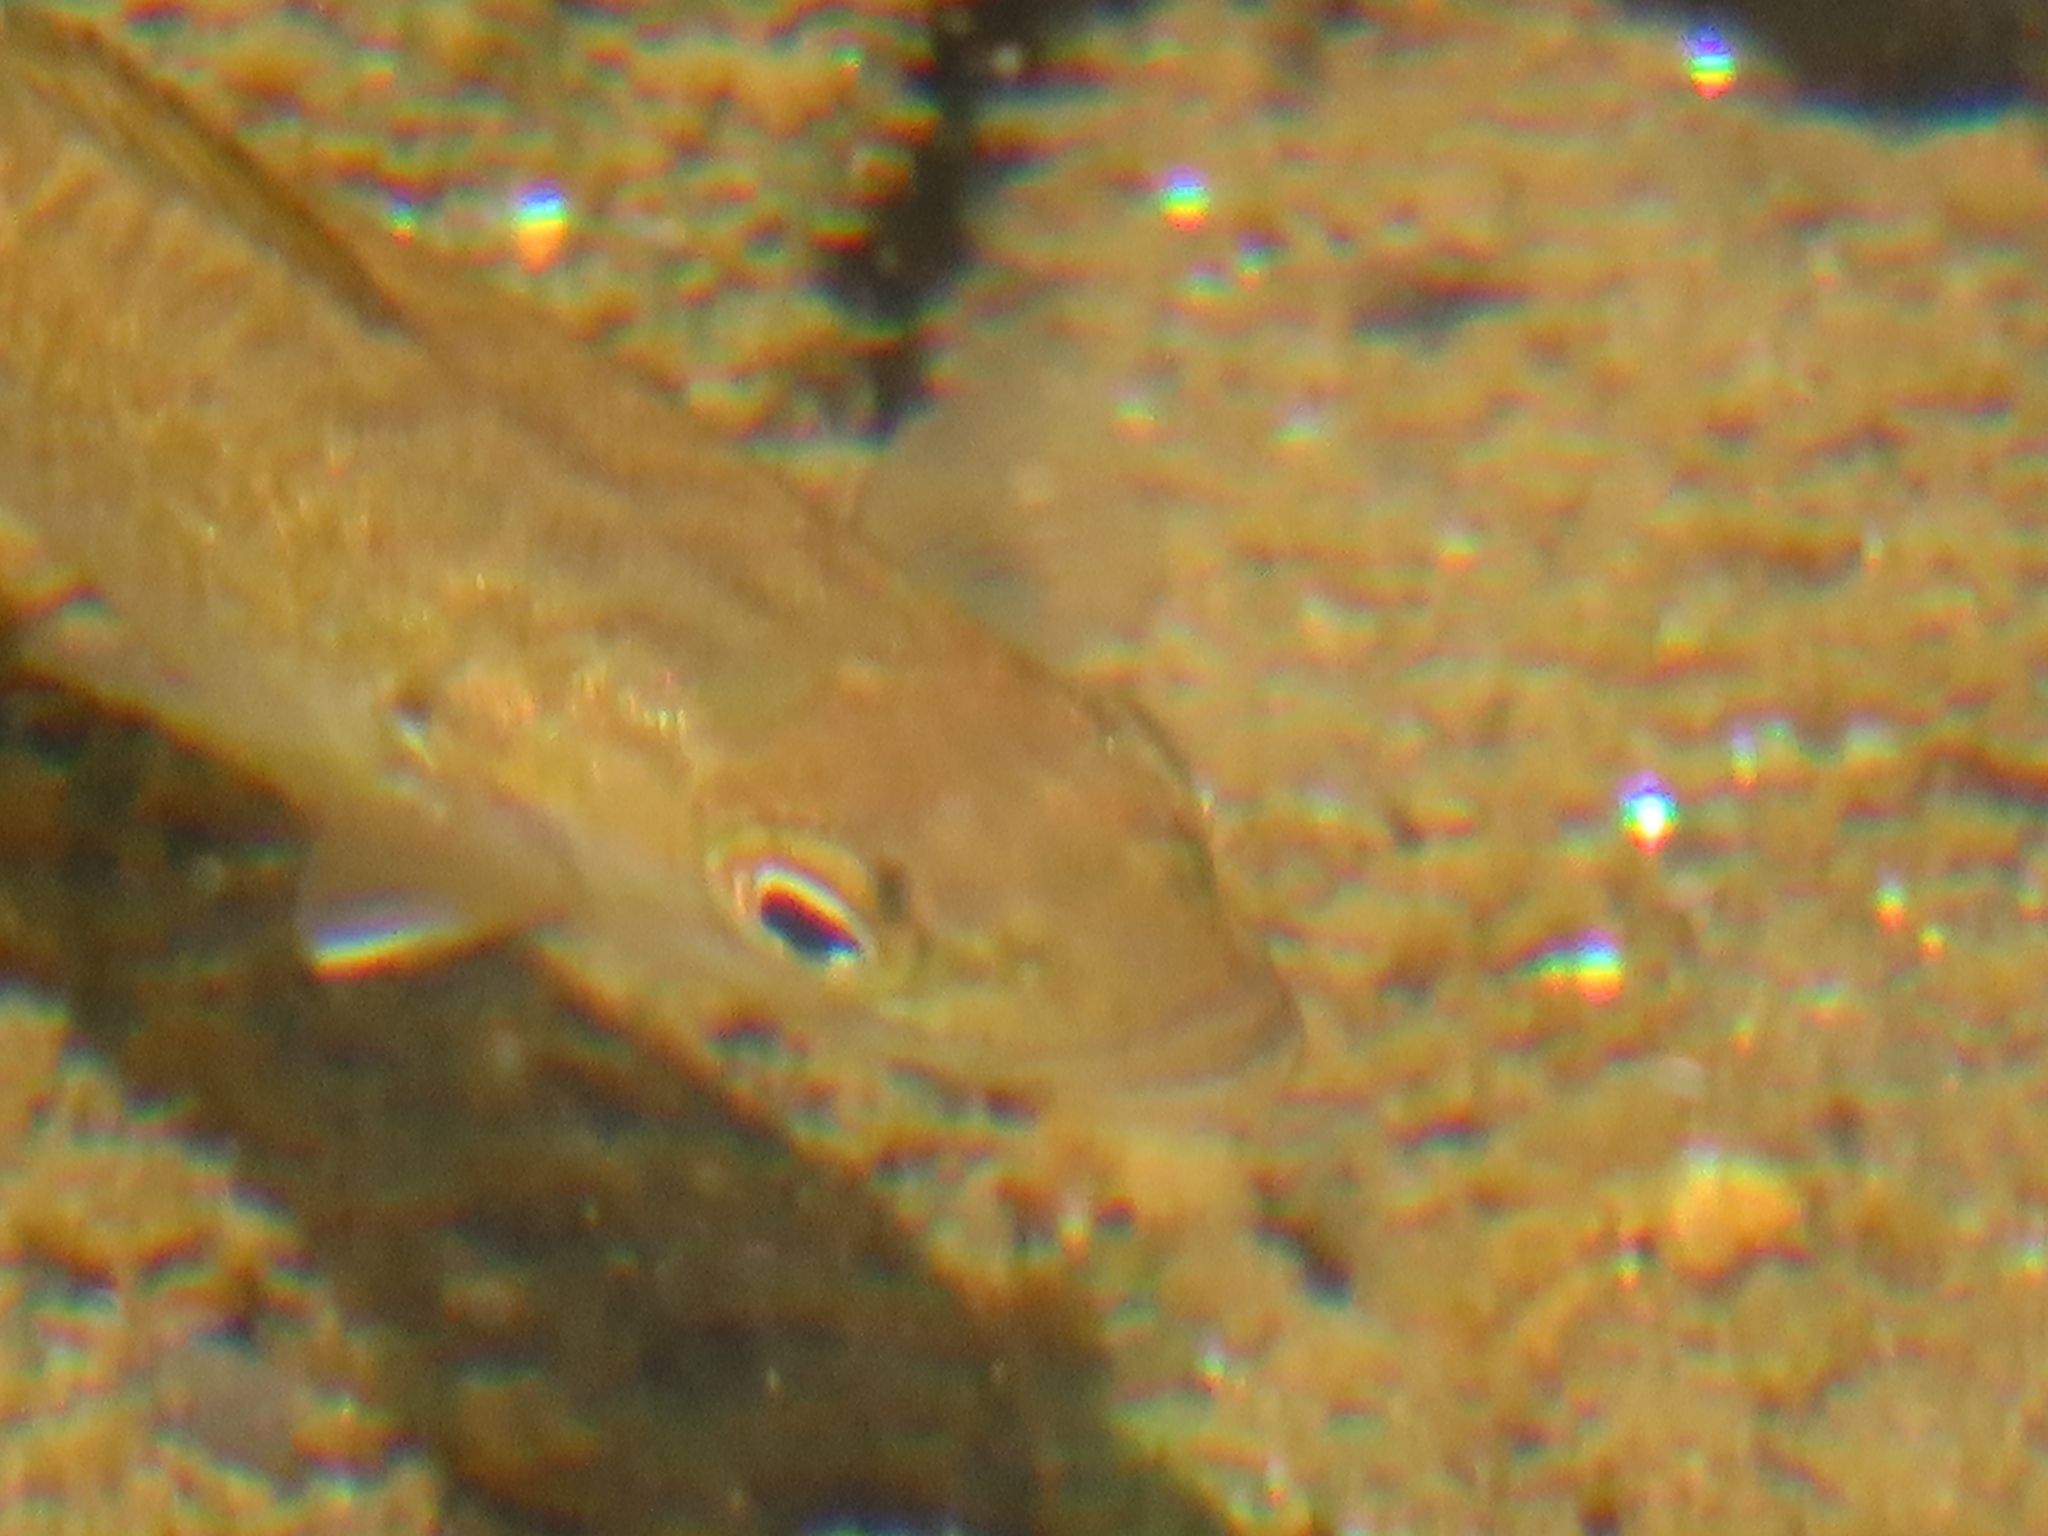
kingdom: Animalia
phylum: Chordata
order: Perciformes
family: Centrarchidae
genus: Micropterus
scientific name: Micropterus dolomieu
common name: Smallmouth bass
